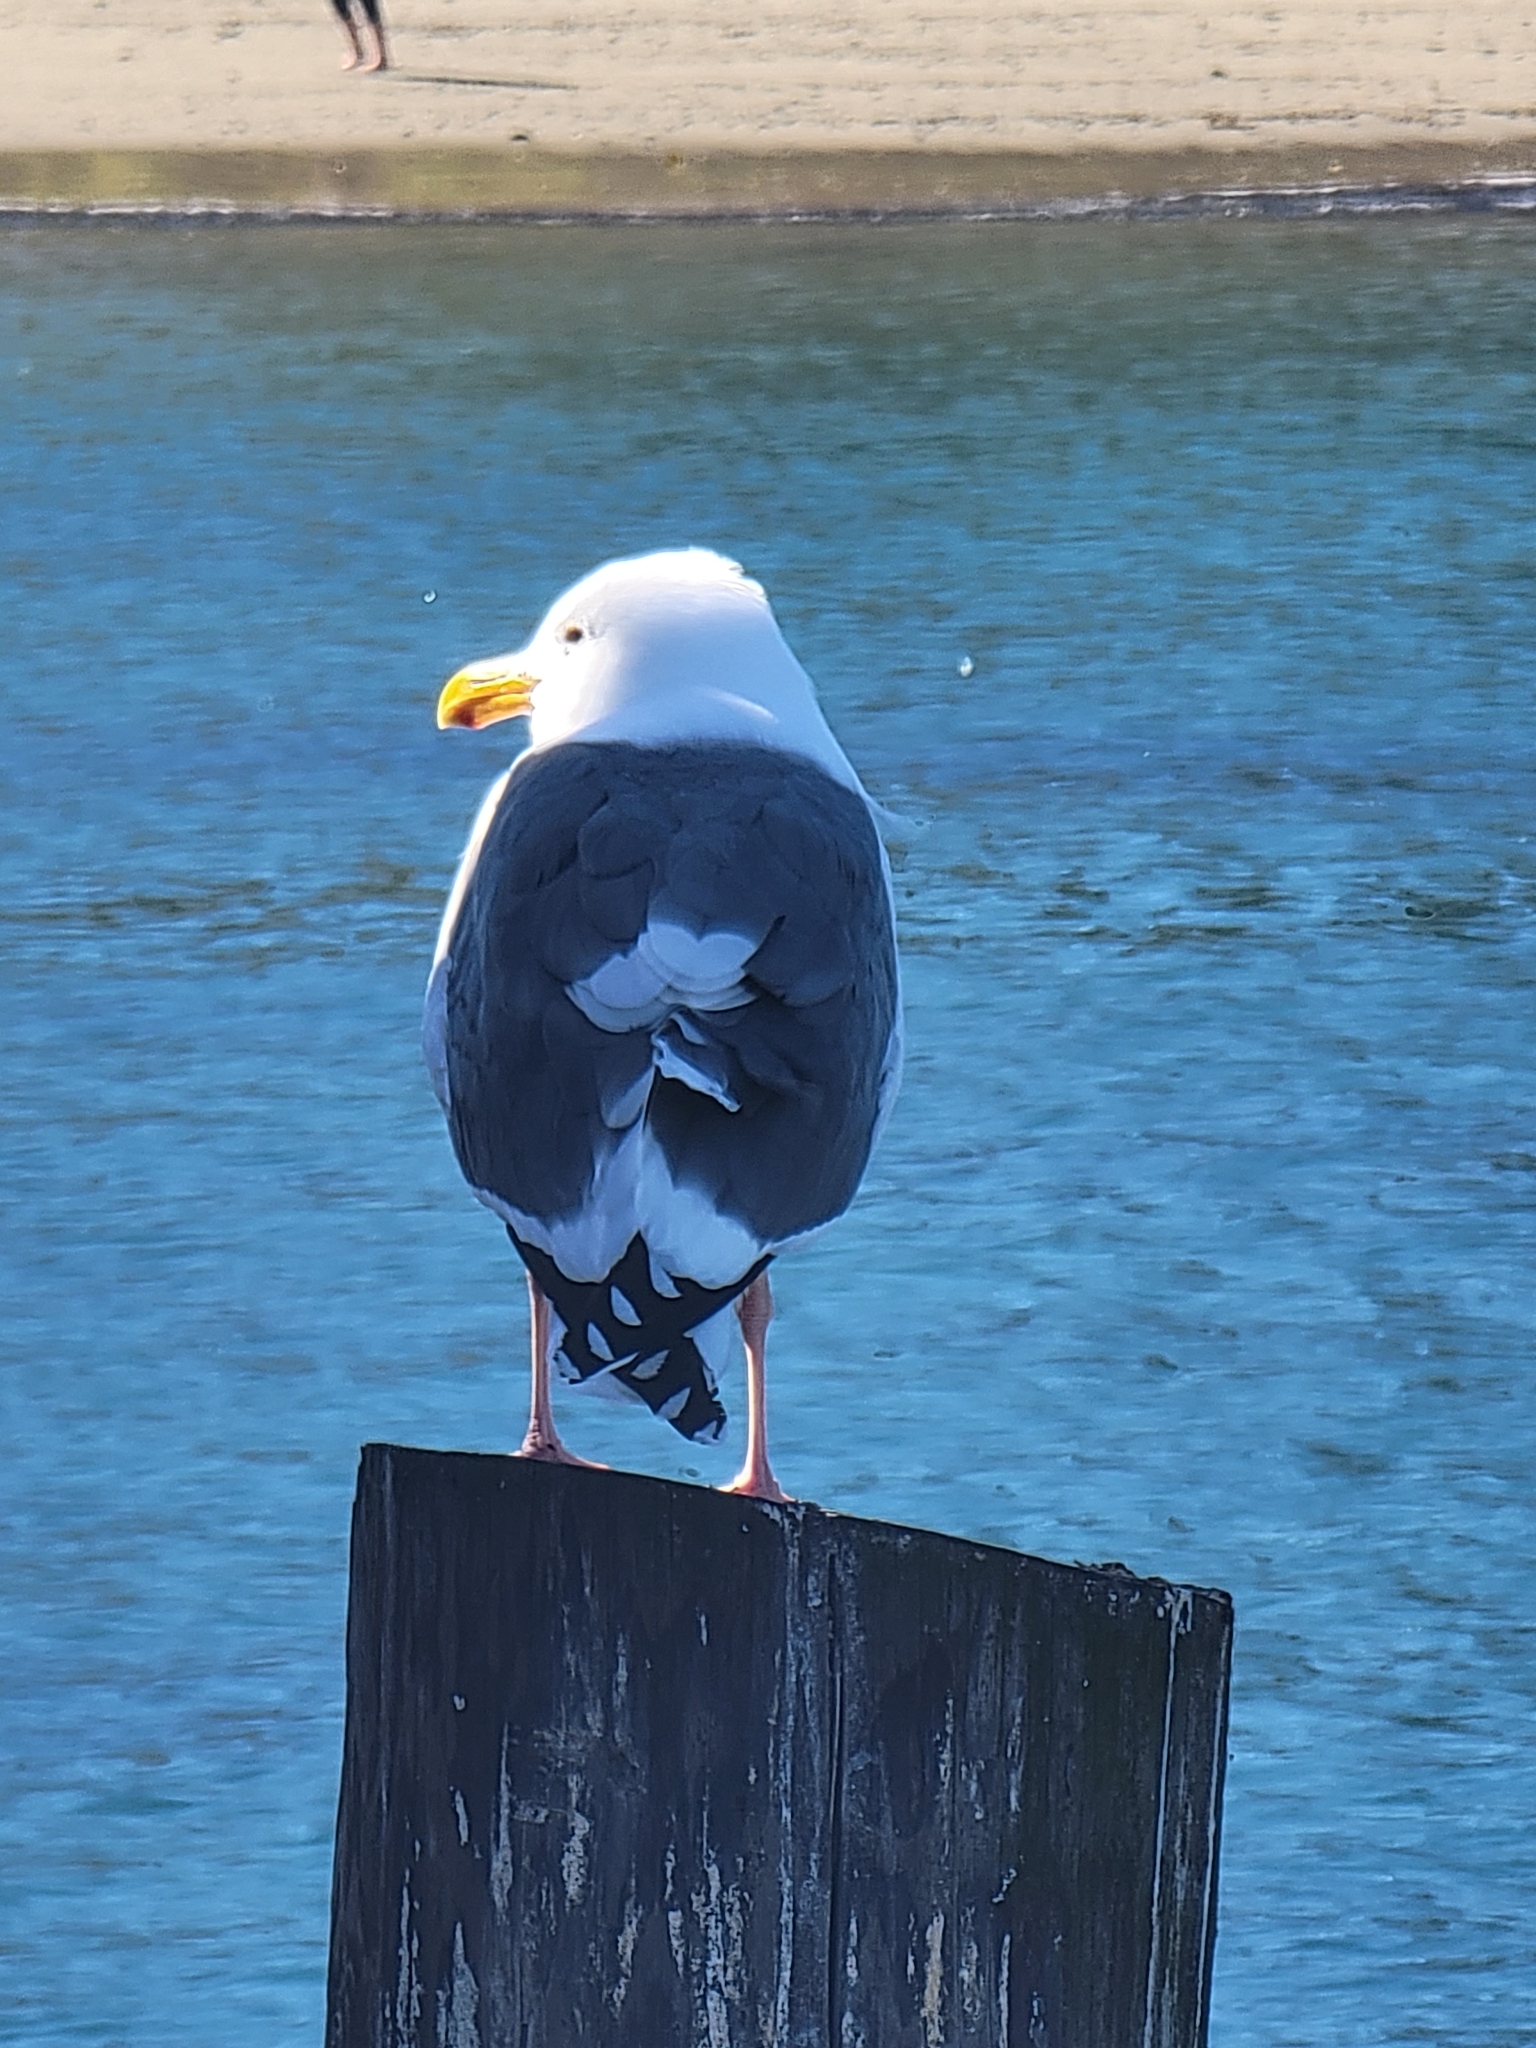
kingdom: Animalia
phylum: Chordata
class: Aves
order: Charadriiformes
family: Laridae
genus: Larus
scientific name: Larus occidentalis
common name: Western gull
